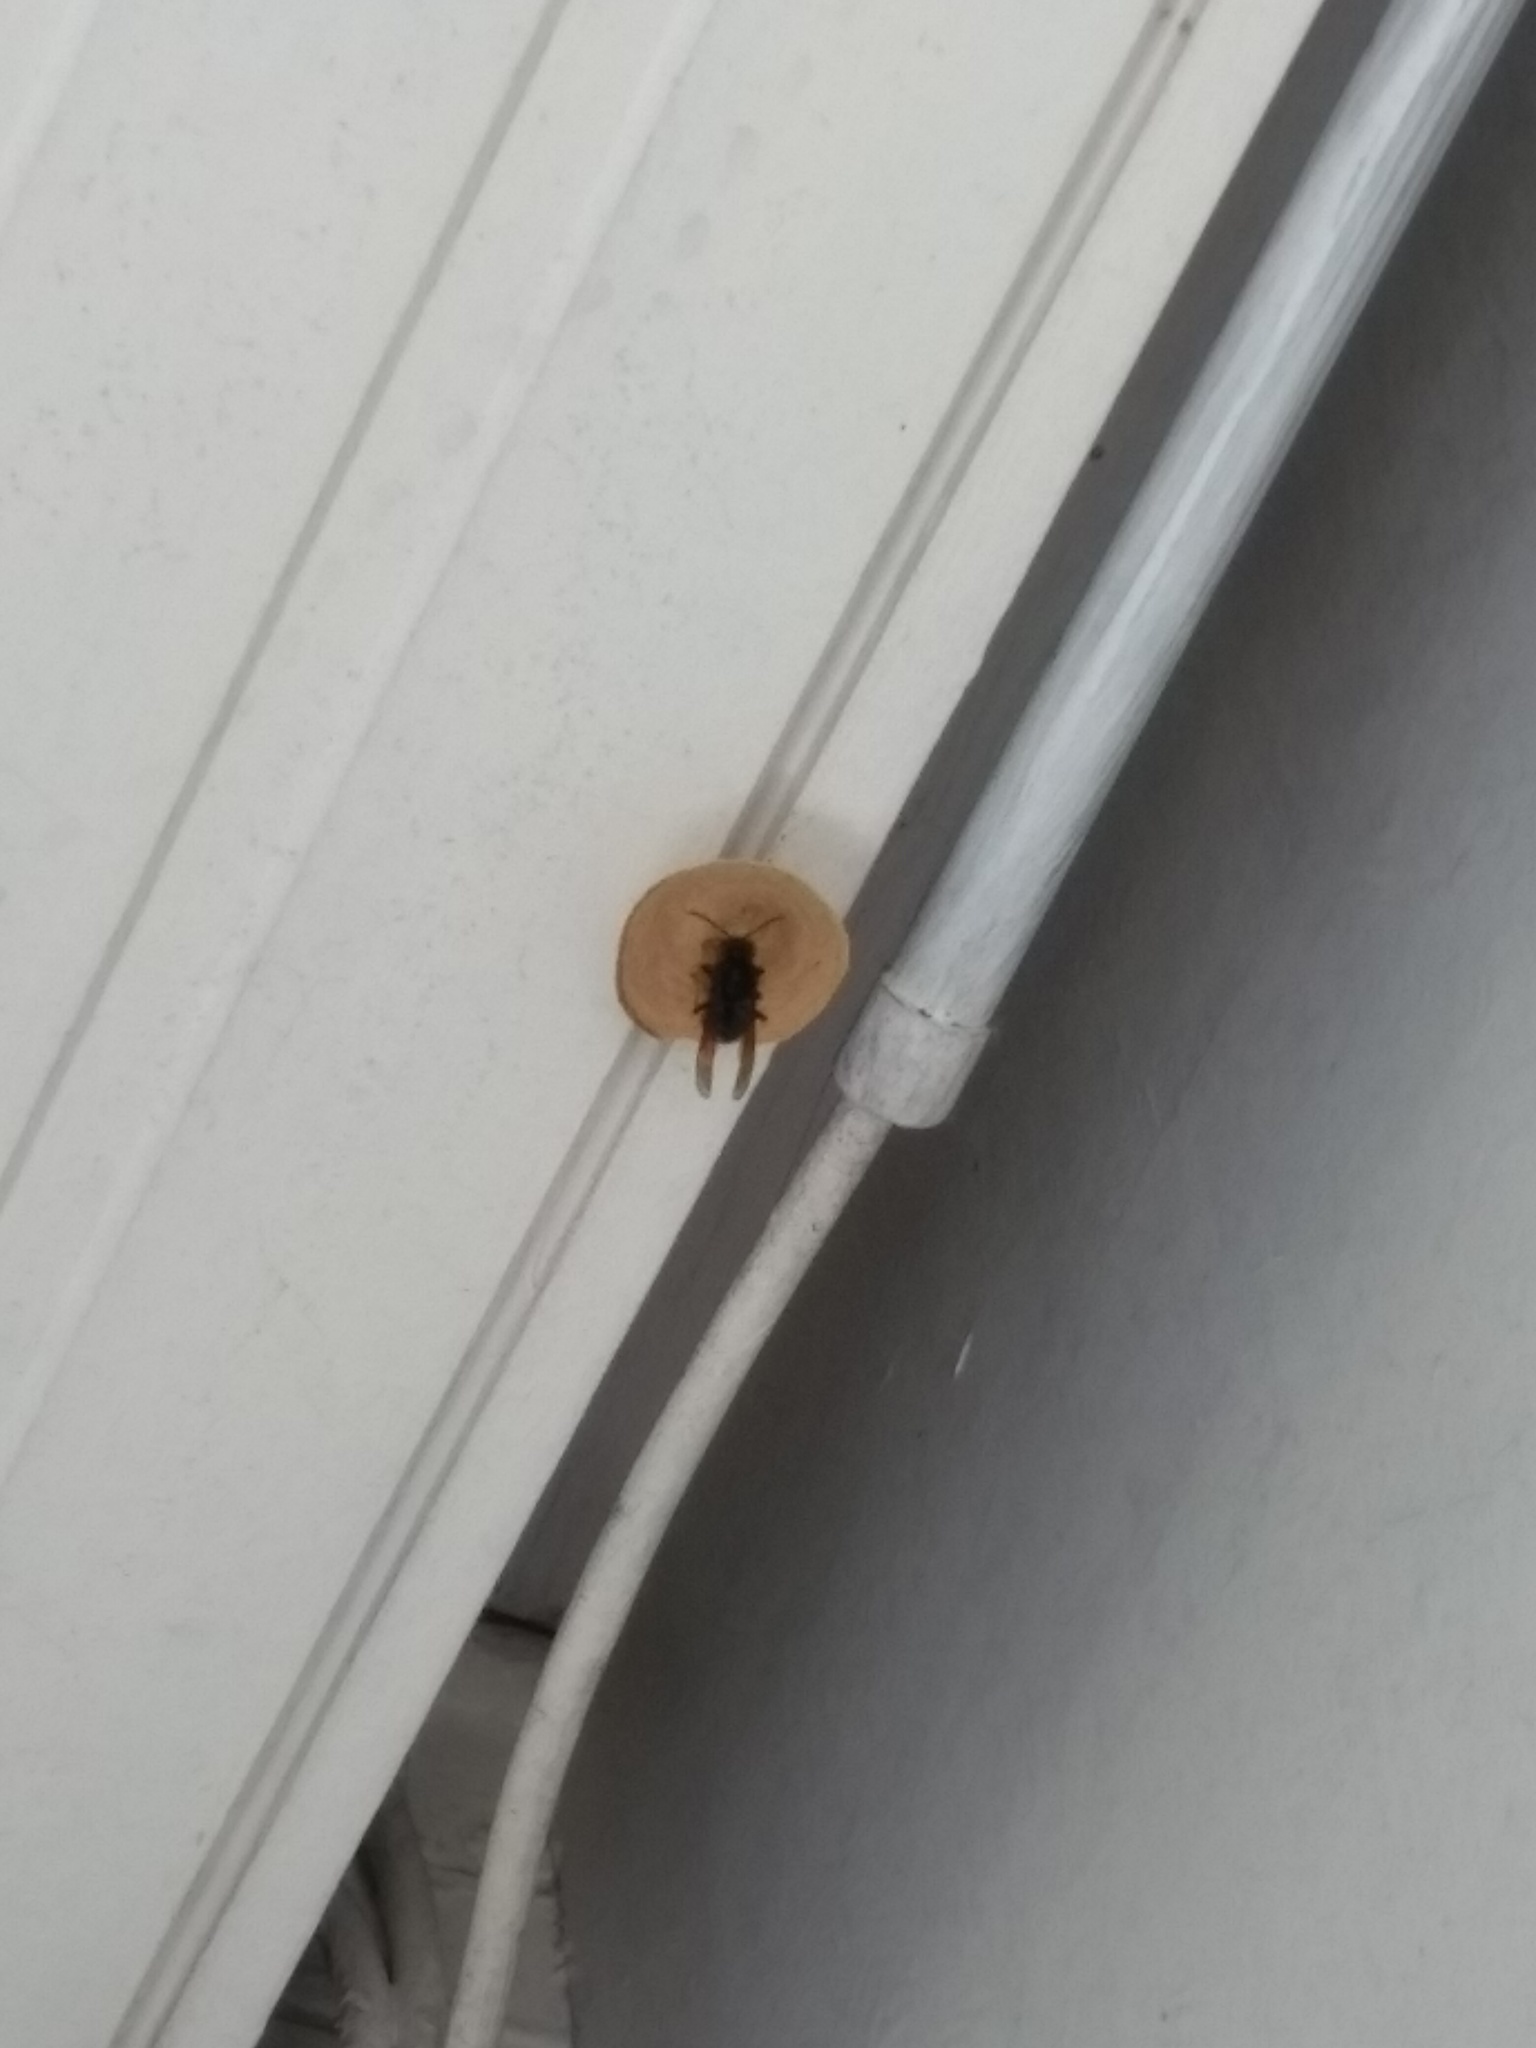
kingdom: Animalia
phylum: Arthropoda
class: Insecta
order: Hymenoptera
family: Vespidae
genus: Vespa
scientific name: Vespa velutina
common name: Asian hornet
